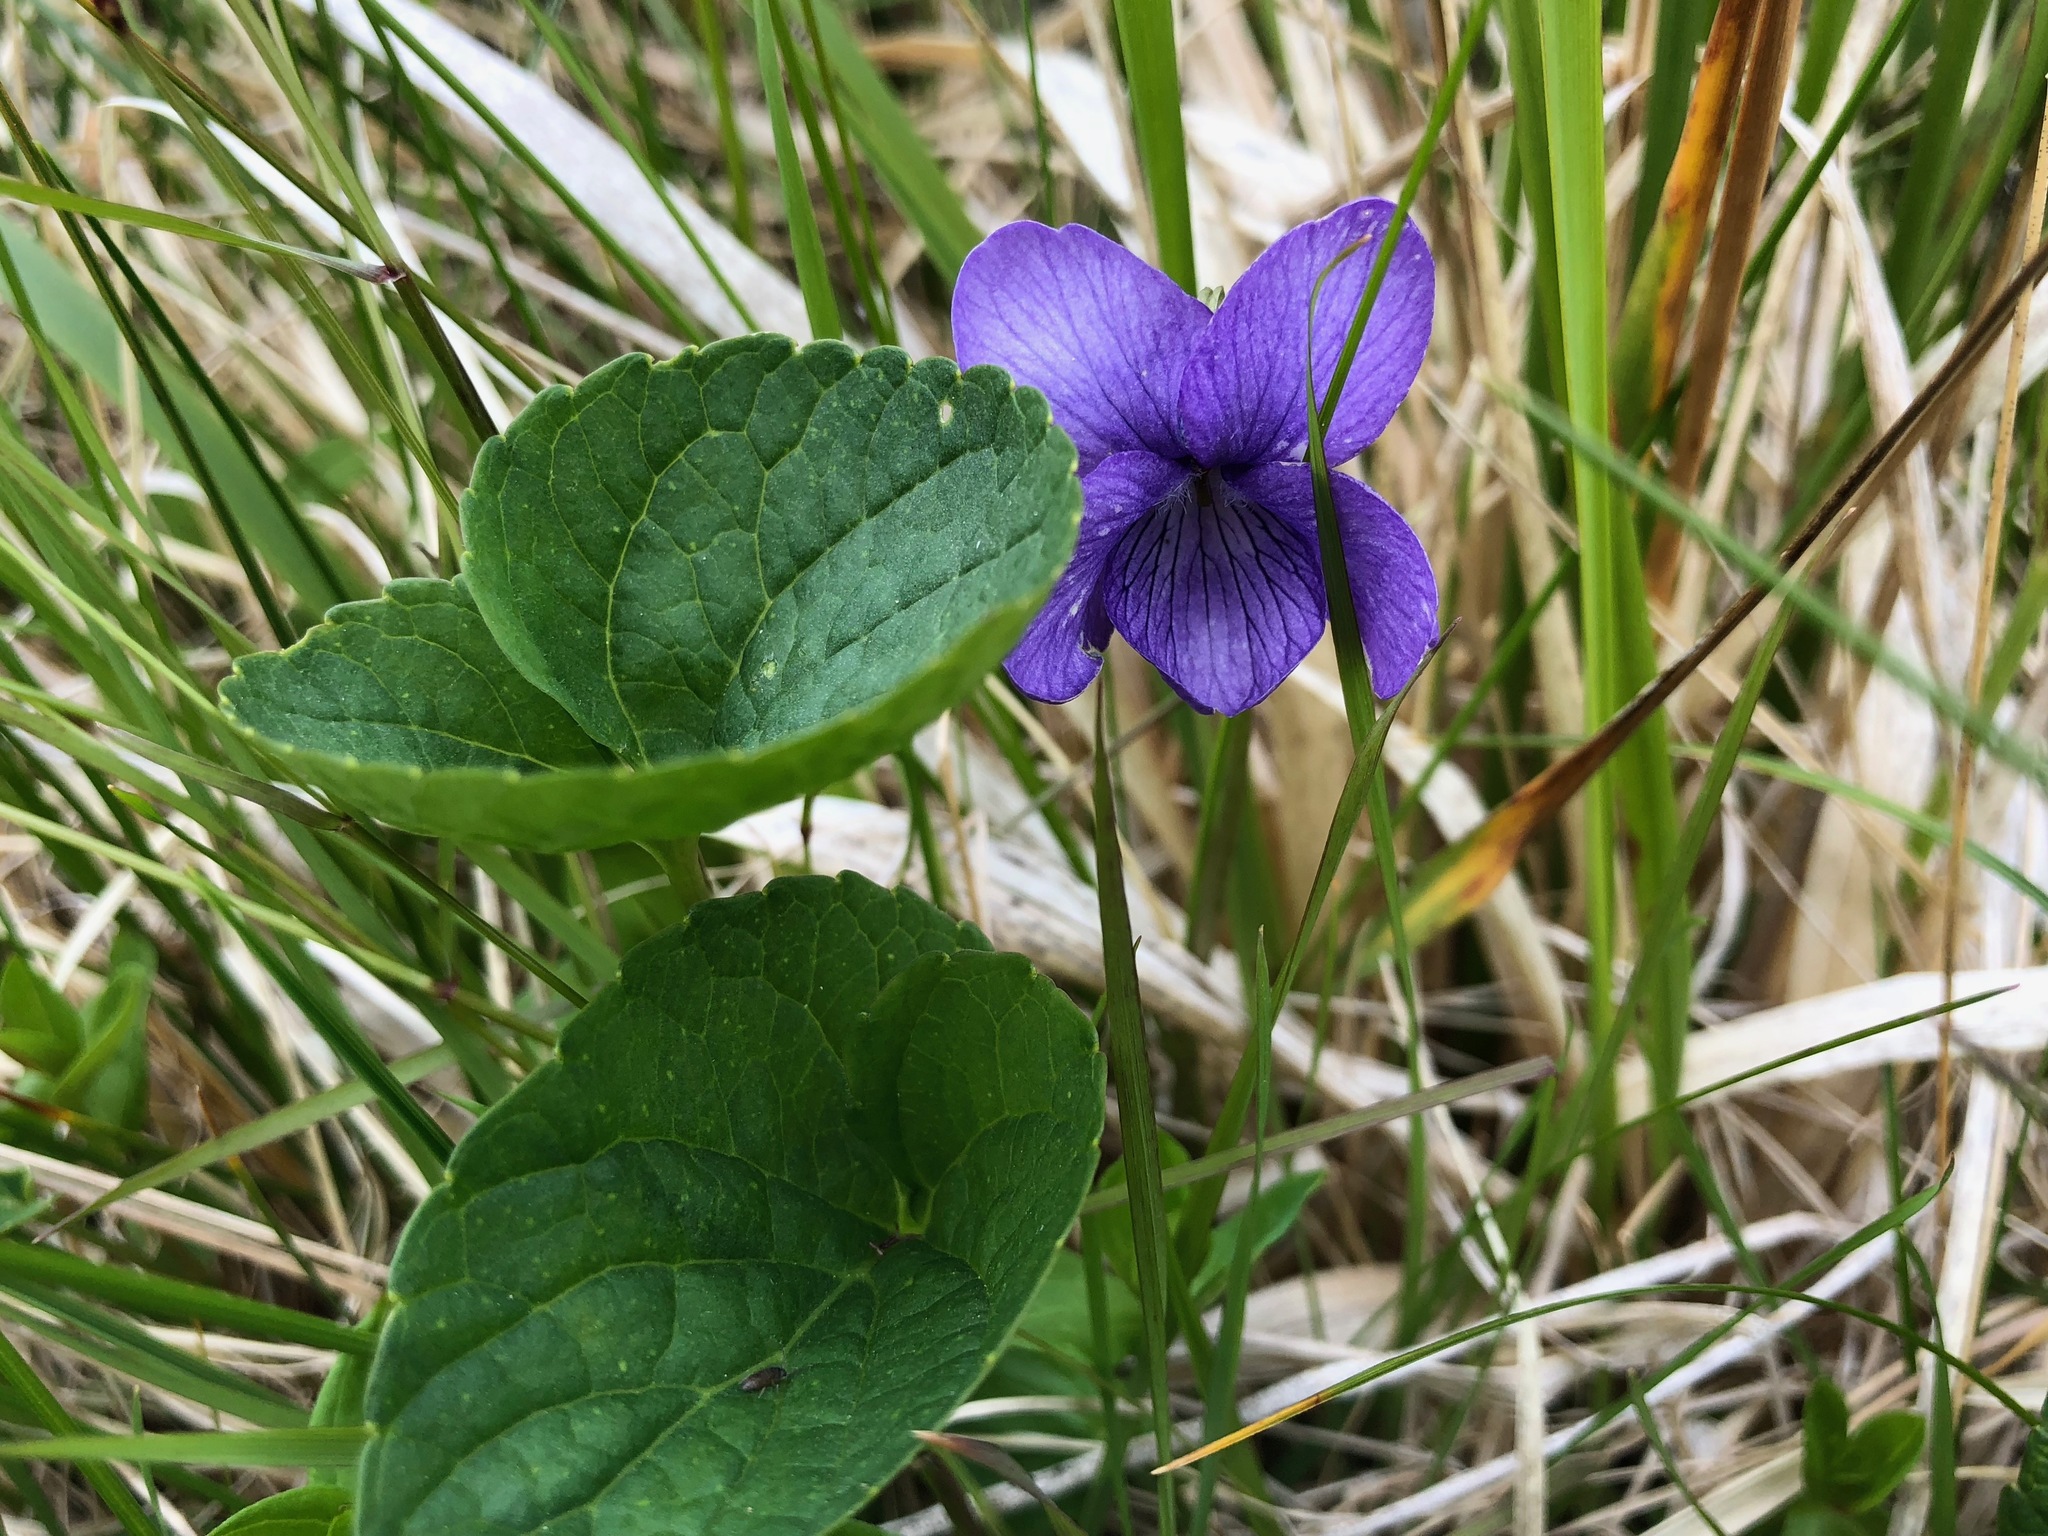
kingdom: Plantae
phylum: Tracheophyta
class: Magnoliopsida
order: Malpighiales
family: Violaceae
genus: Viola
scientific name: Viola langsdorffii
